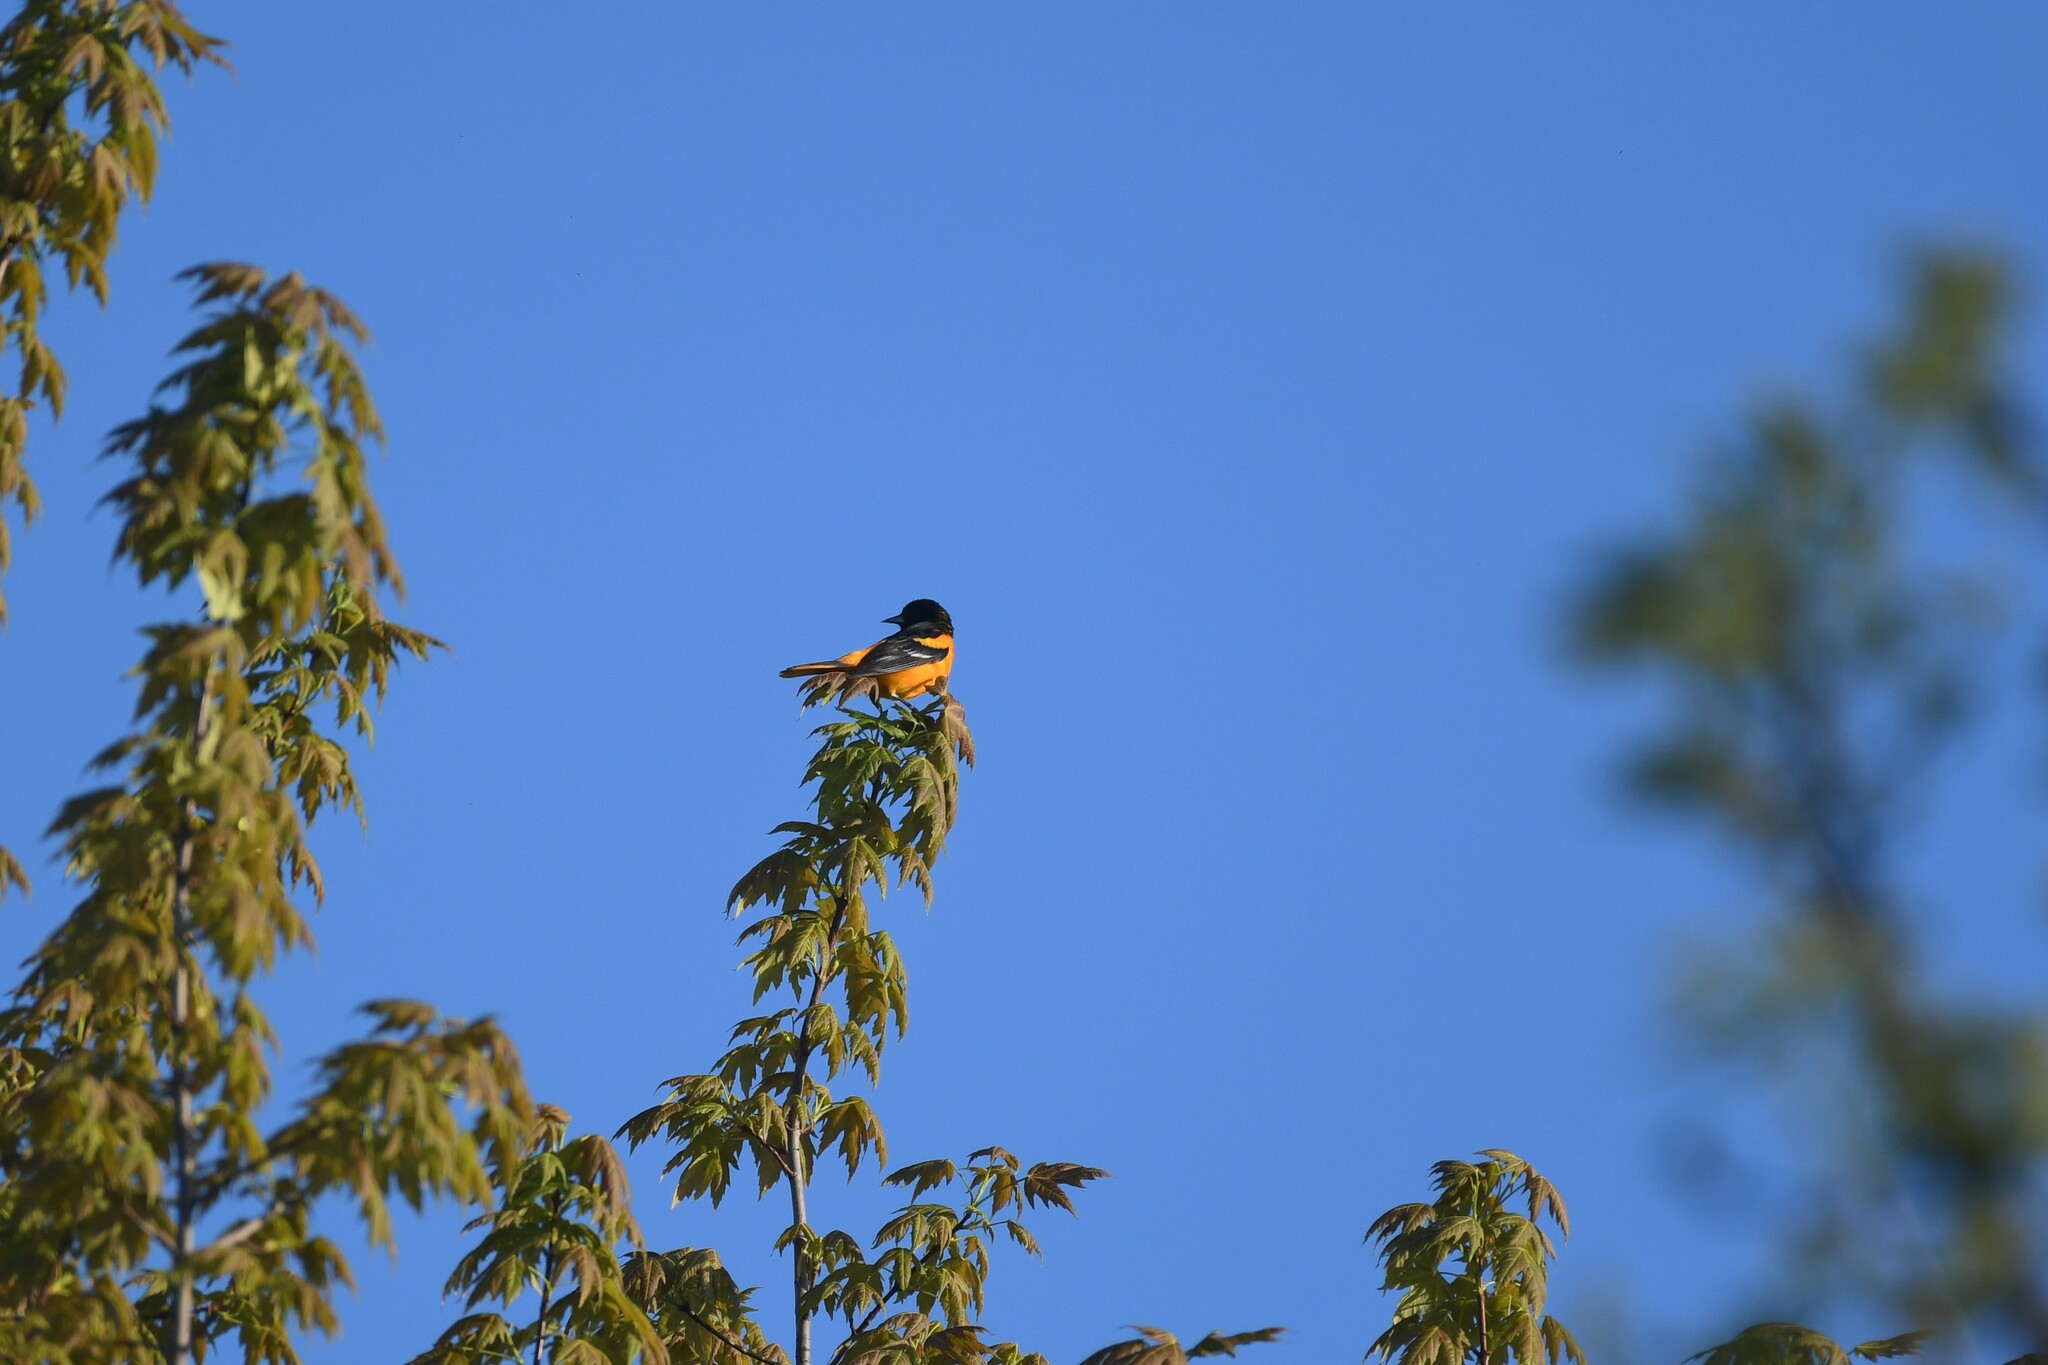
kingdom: Animalia
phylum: Chordata
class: Aves
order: Passeriformes
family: Icteridae
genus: Icterus
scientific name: Icterus galbula
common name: Baltimore oriole
